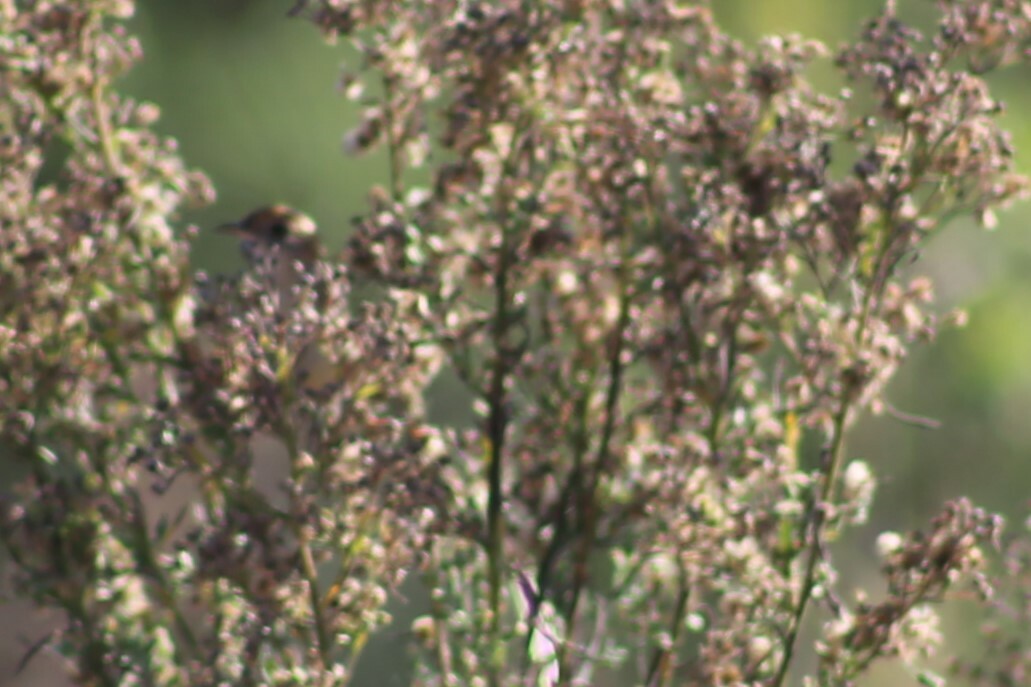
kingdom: Animalia
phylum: Chordata
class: Aves
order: Passeriformes
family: Locustellidae
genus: Megalurus
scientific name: Megalurus timoriensis
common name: Tawny grassbird
